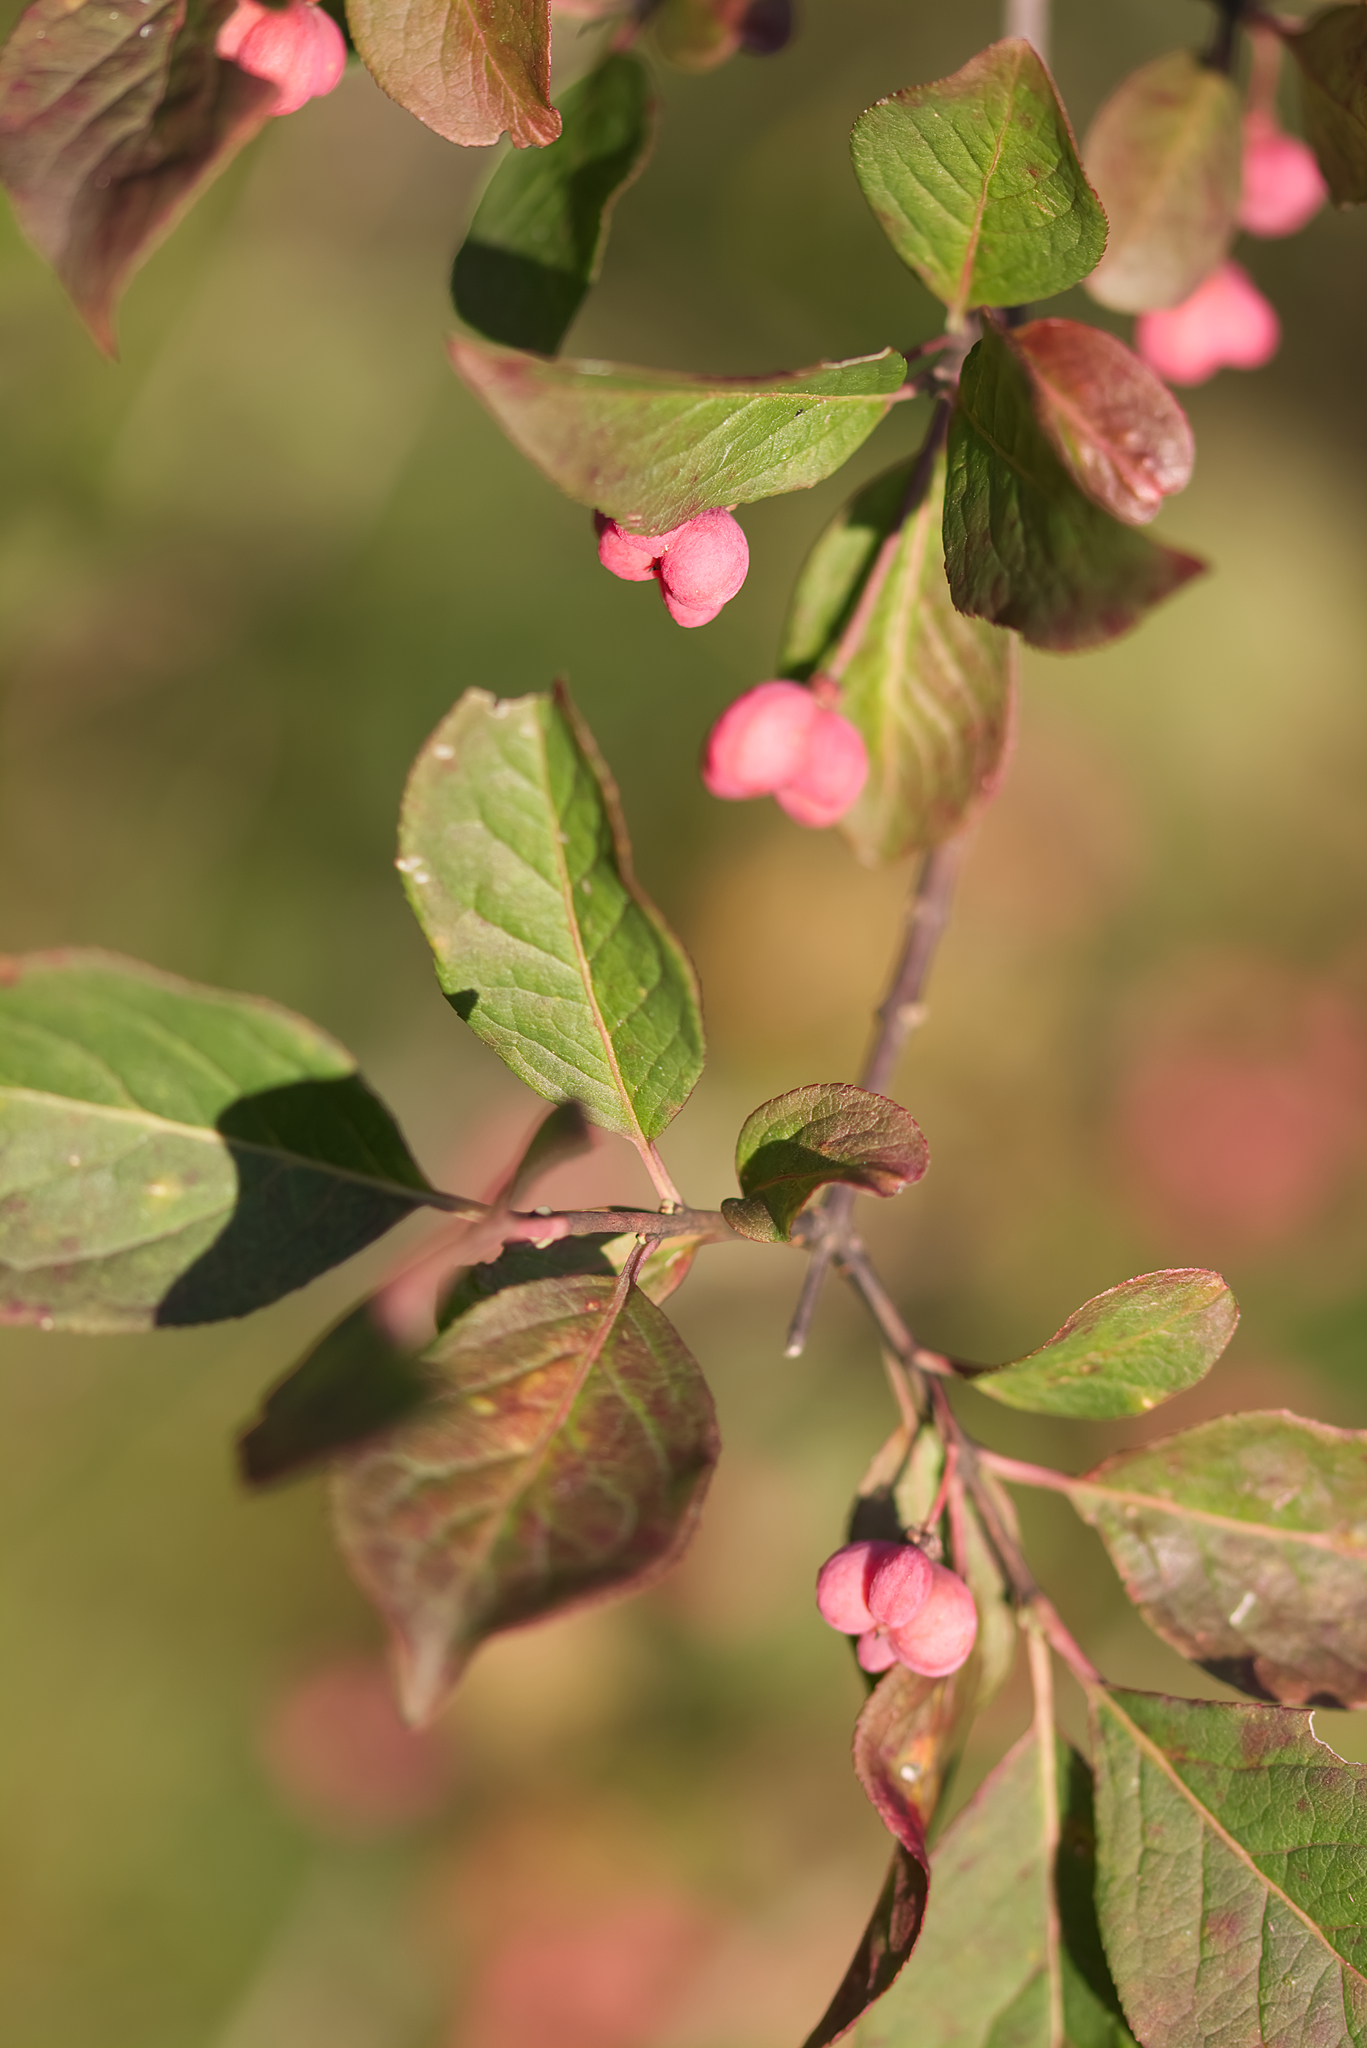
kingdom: Plantae
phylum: Tracheophyta
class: Magnoliopsida
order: Celastrales
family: Celastraceae
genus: Euonymus
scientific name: Euonymus europaeus
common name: Spindle
